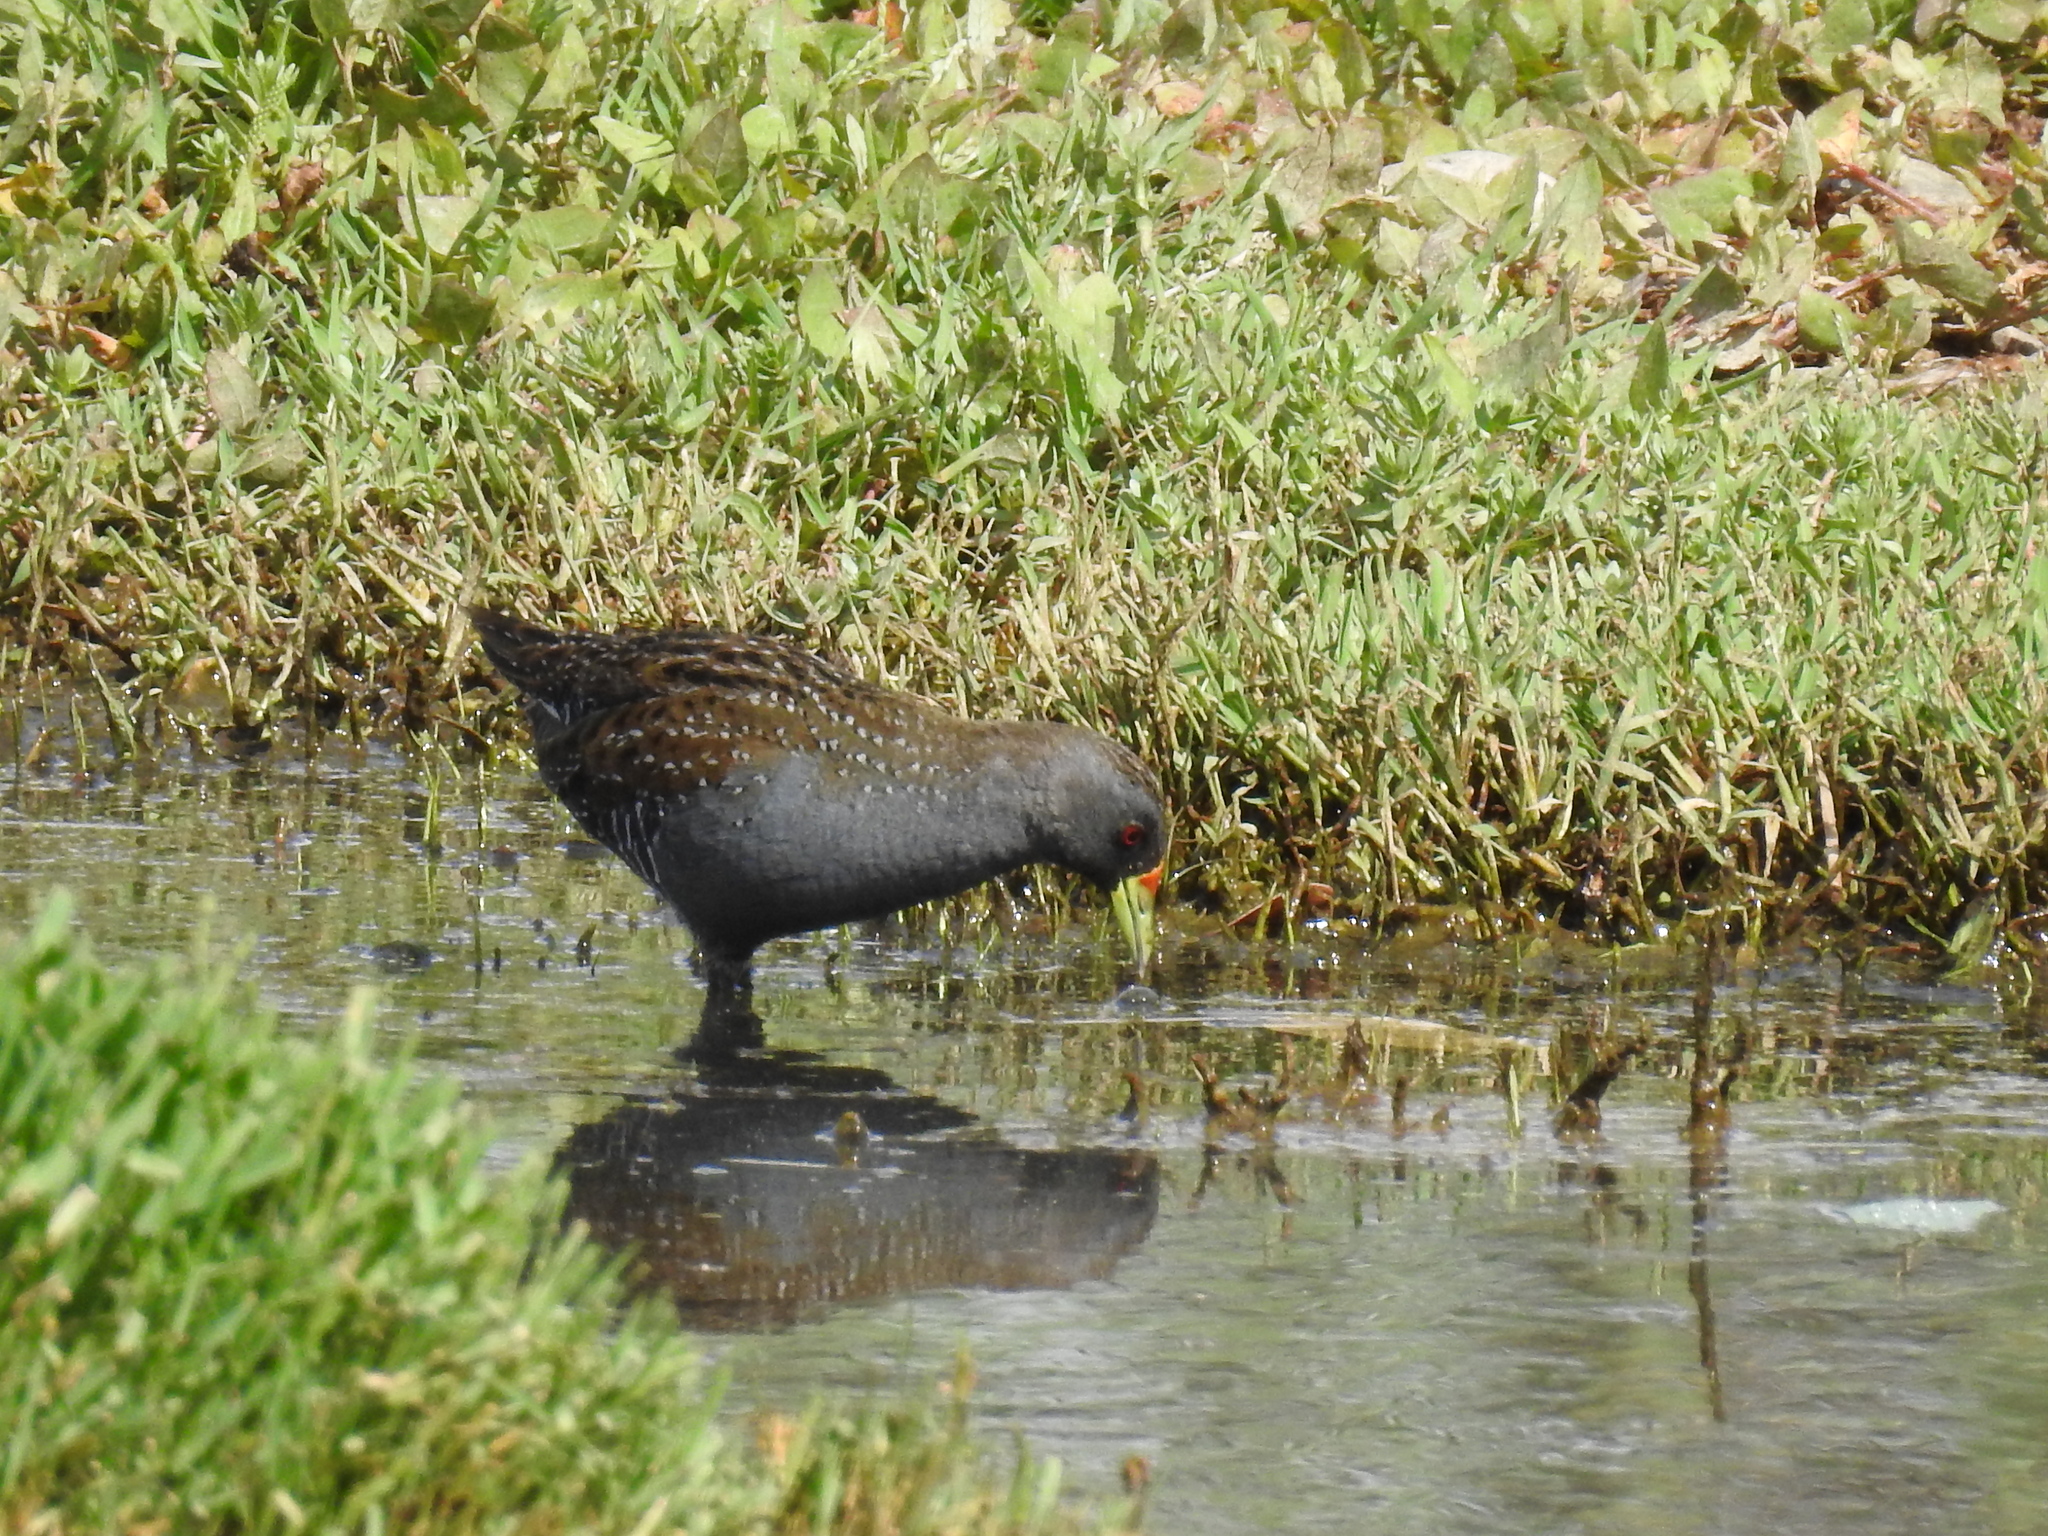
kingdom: Animalia
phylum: Chordata
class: Aves
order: Gruiformes
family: Rallidae
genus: Porzana
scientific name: Porzana fluminea
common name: Australian crake
